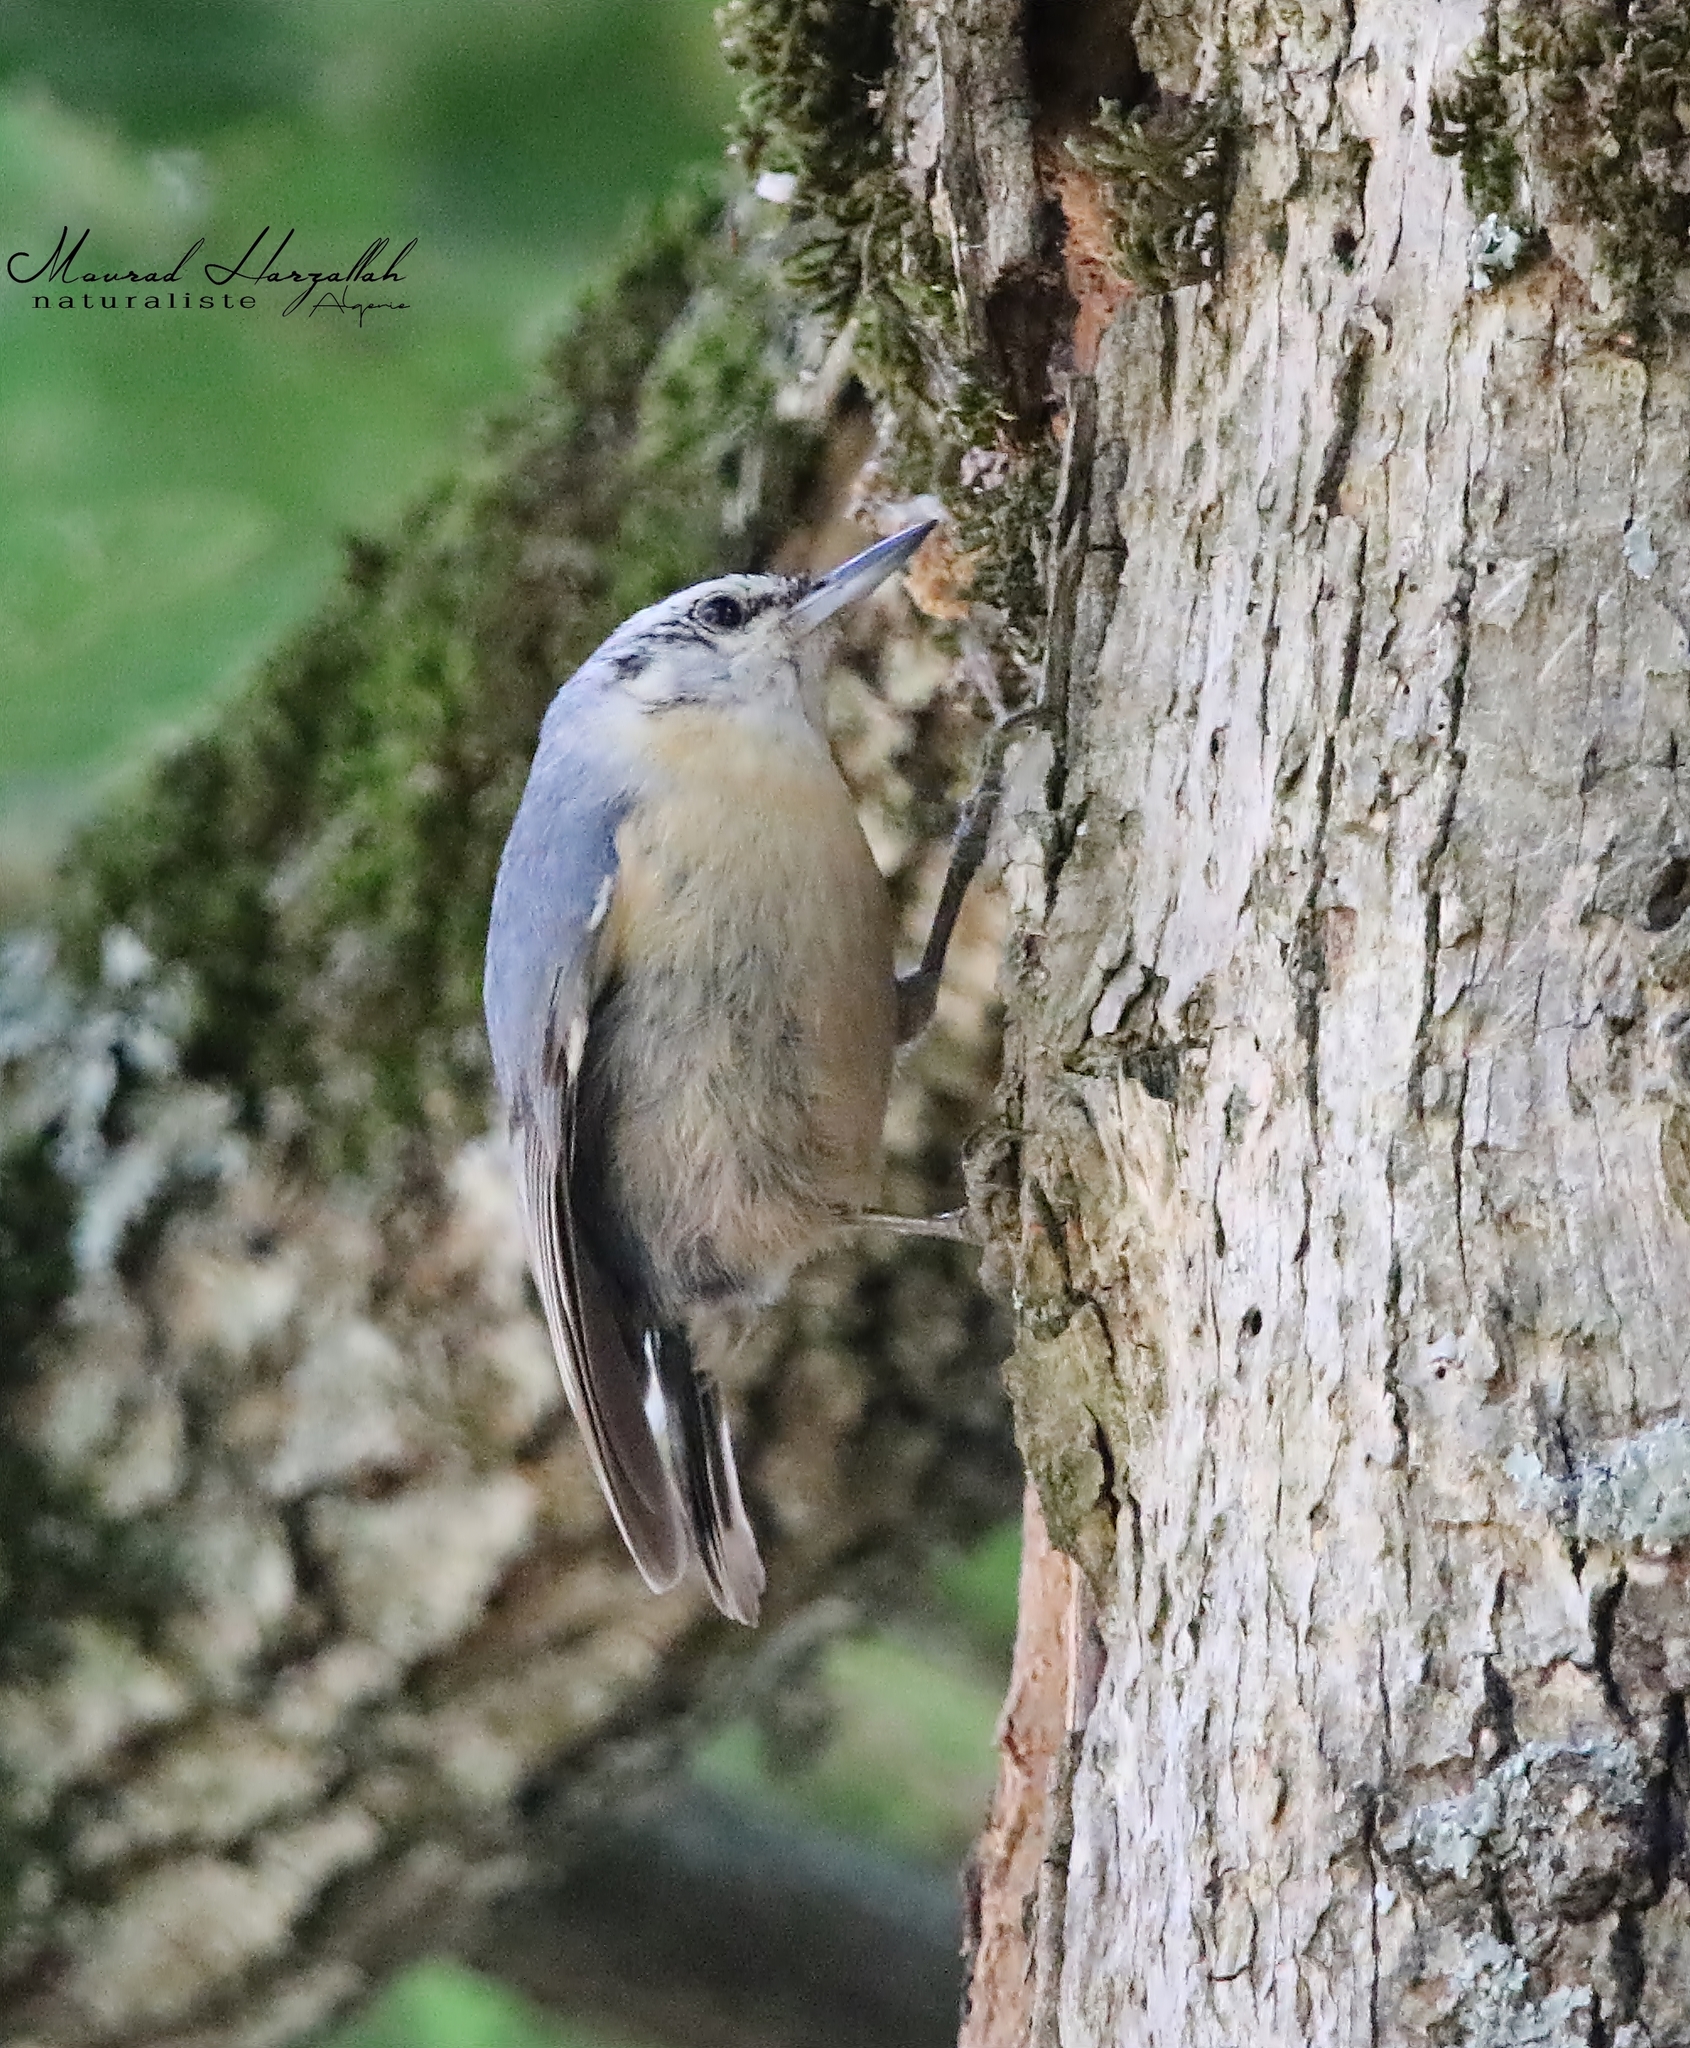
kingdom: Animalia
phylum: Chordata
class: Aves
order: Passeriformes
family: Sittidae
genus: Sitta
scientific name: Sitta ledanti
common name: Algerian nuthatch
